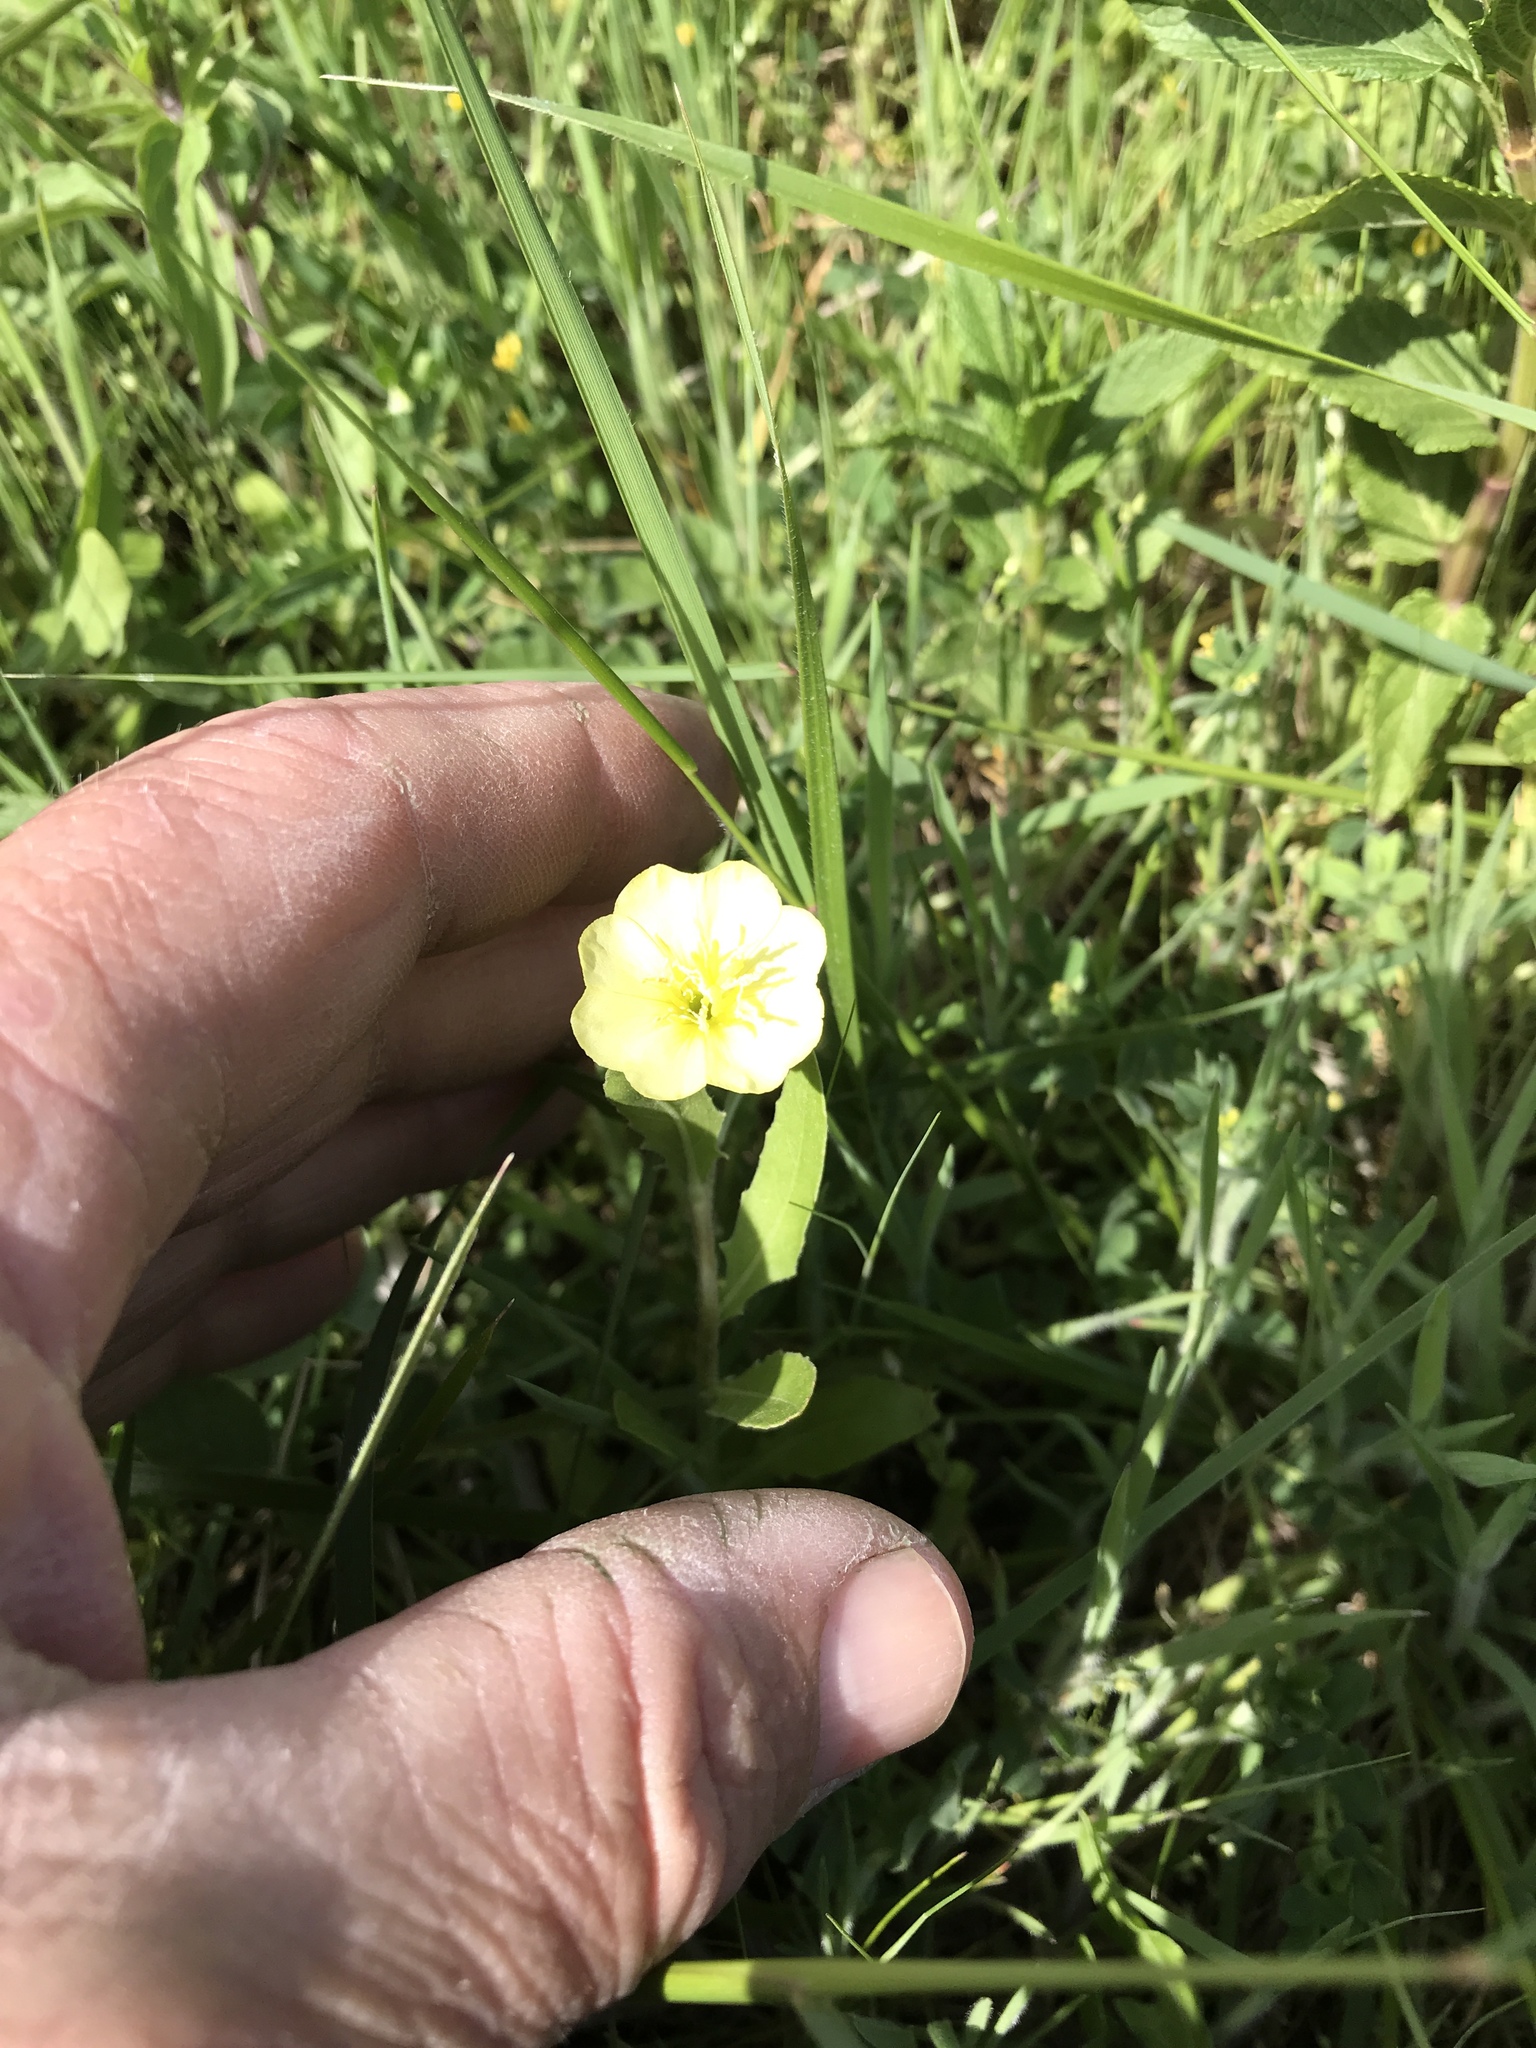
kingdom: Plantae
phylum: Tracheophyta
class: Magnoliopsida
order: Myrtales
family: Onagraceae
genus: Oenothera
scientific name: Oenothera laciniata
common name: Cut-leaved evening-primrose
